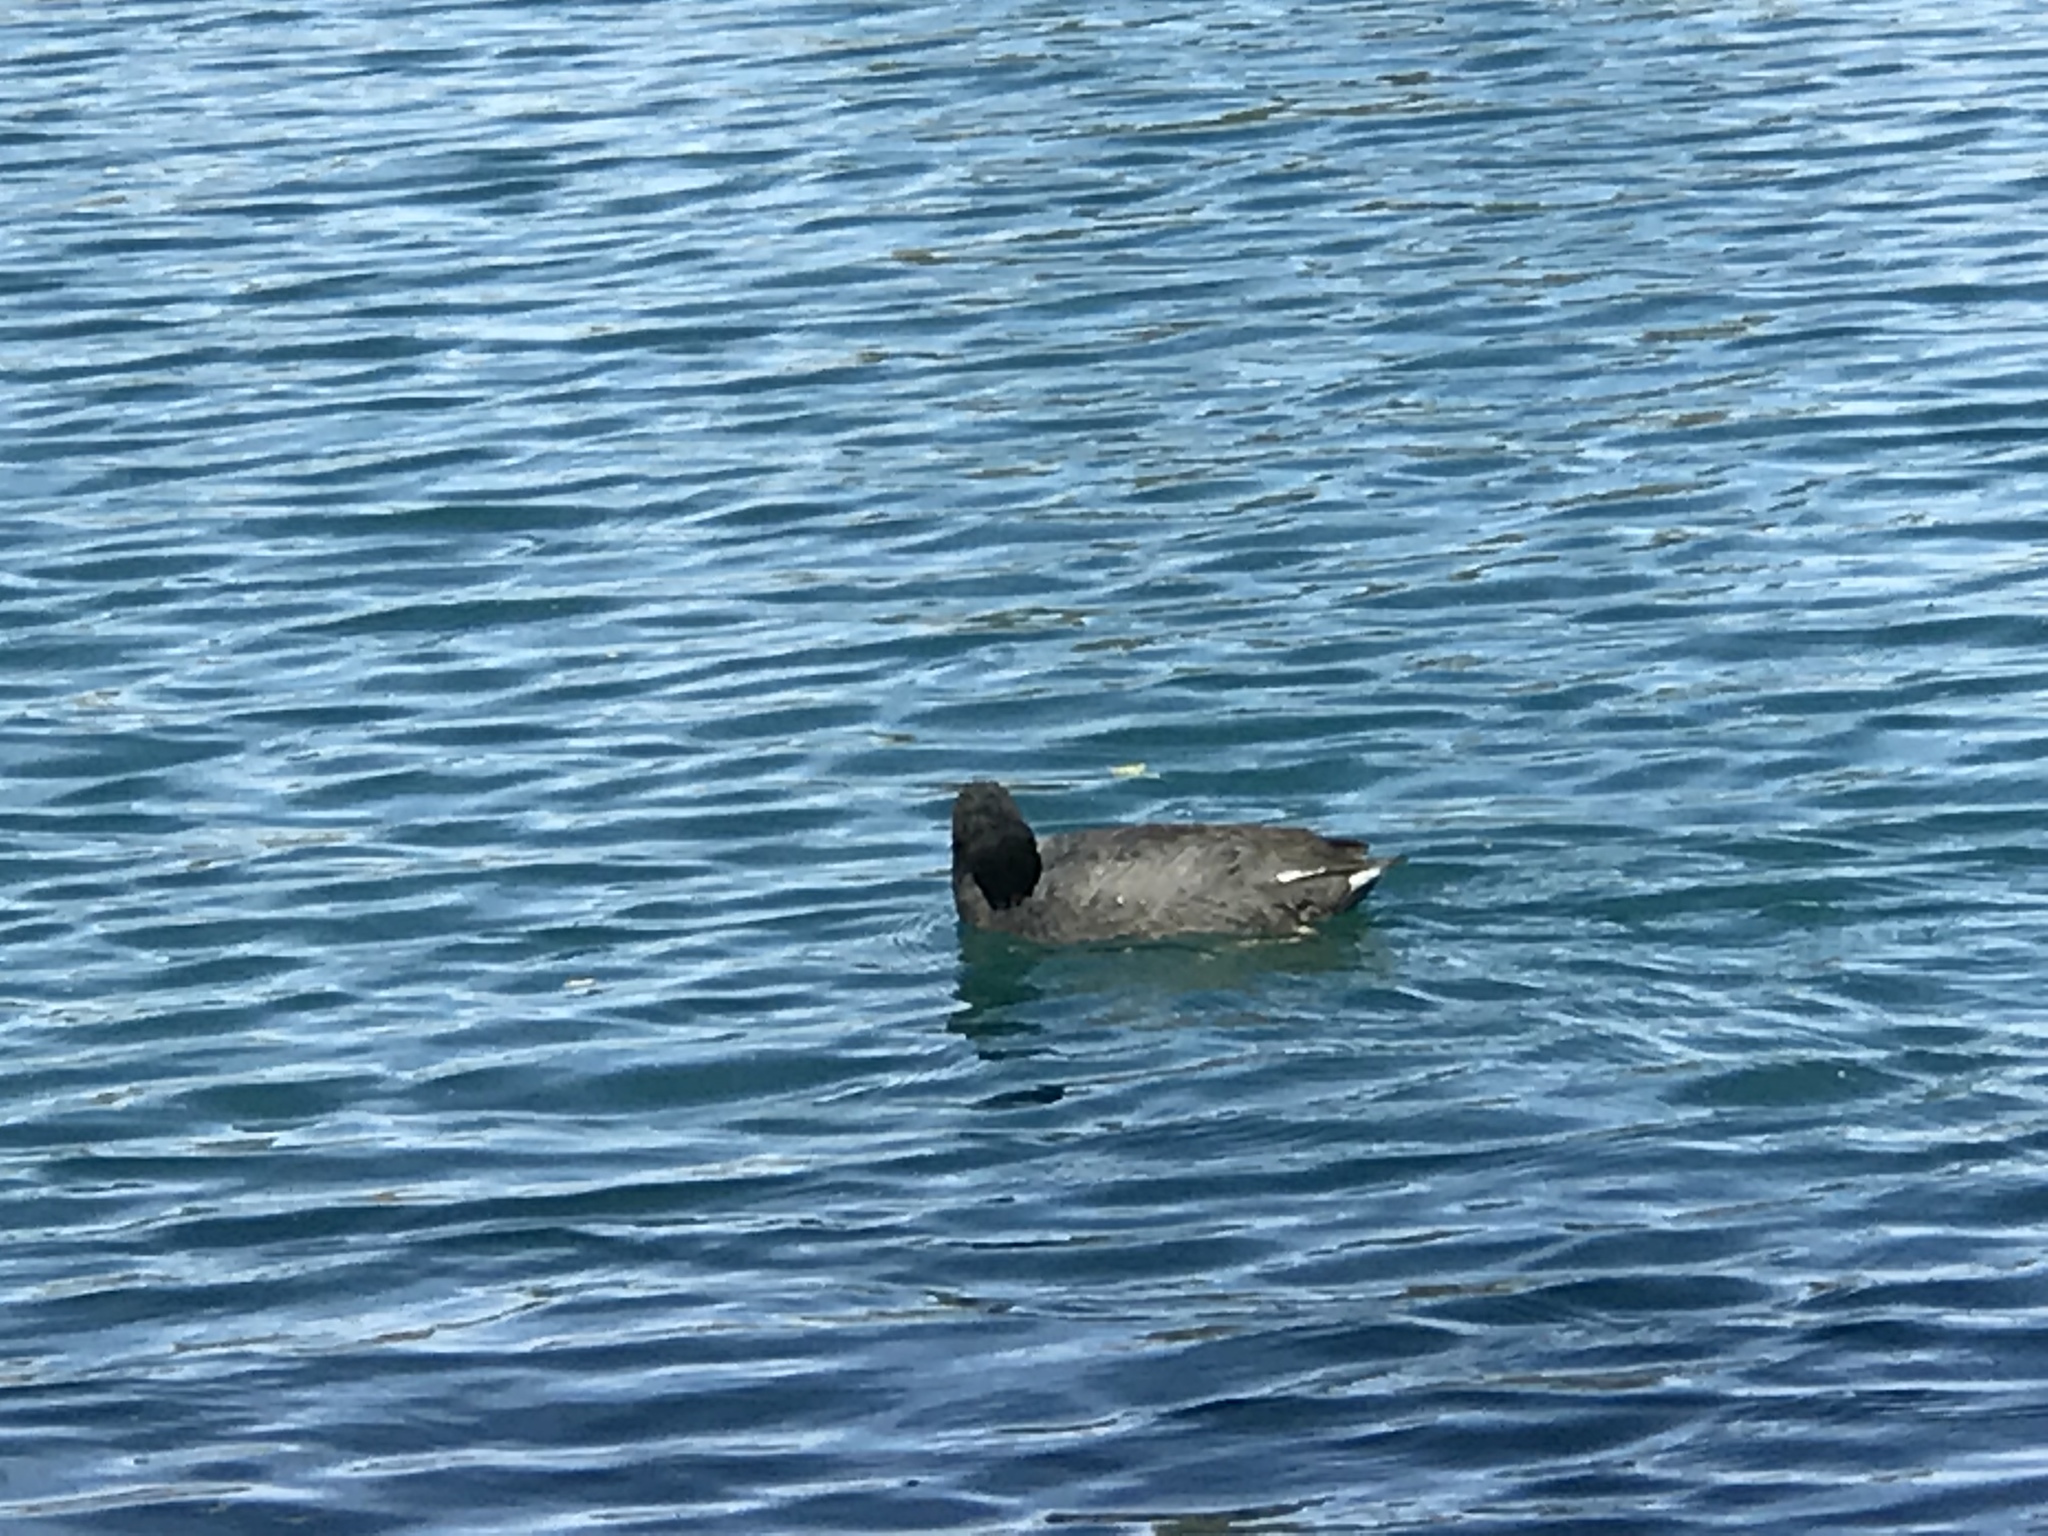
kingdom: Animalia
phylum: Chordata
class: Aves
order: Gruiformes
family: Rallidae
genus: Fulica
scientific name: Fulica americana
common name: American coot
